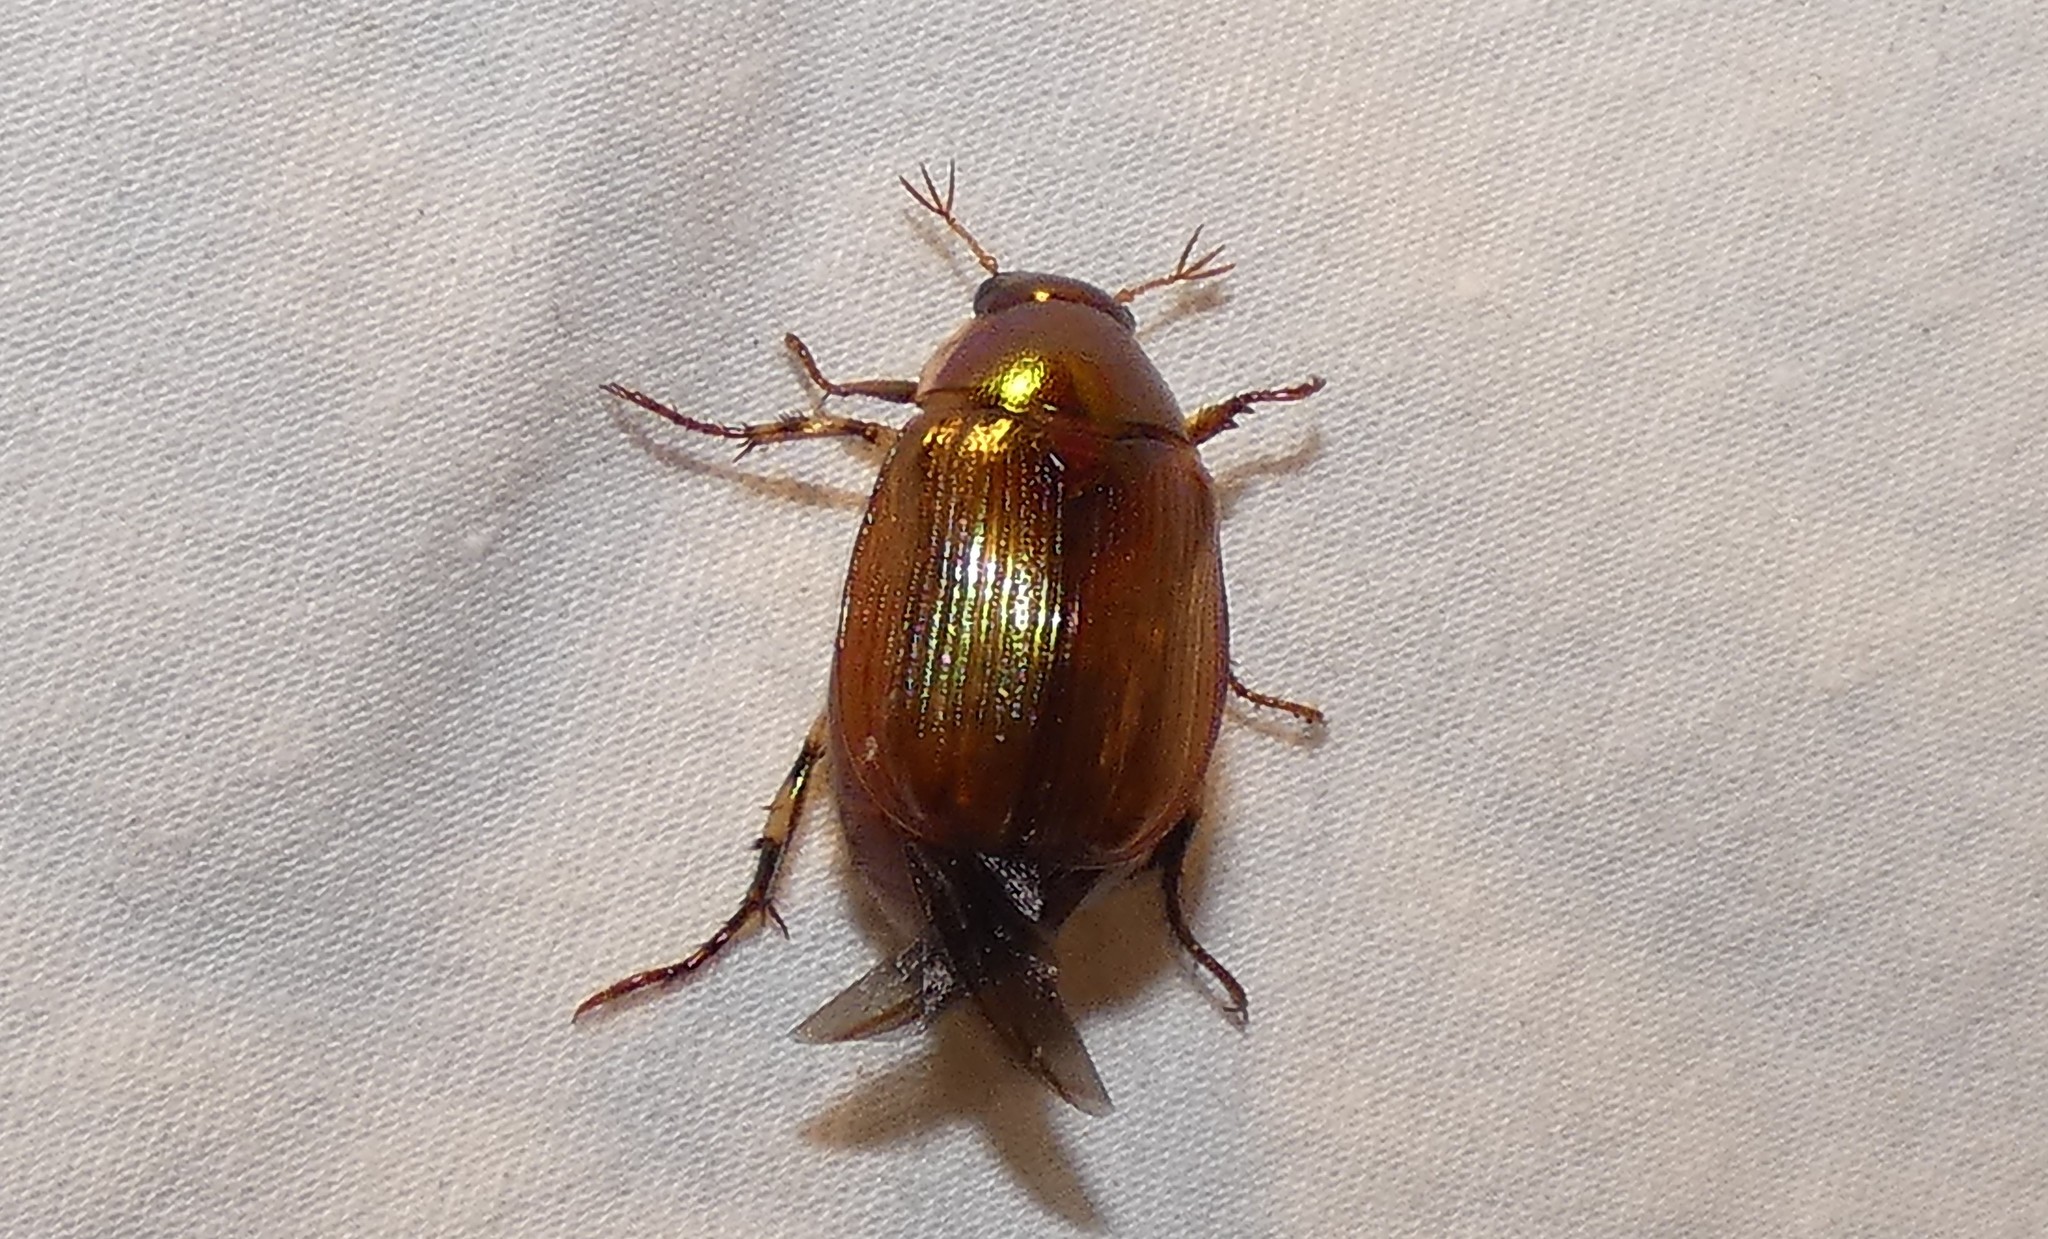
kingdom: Animalia
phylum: Arthropoda
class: Insecta
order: Coleoptera
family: Scarabaeidae
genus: Callistethus
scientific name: Callistethus marginatus
